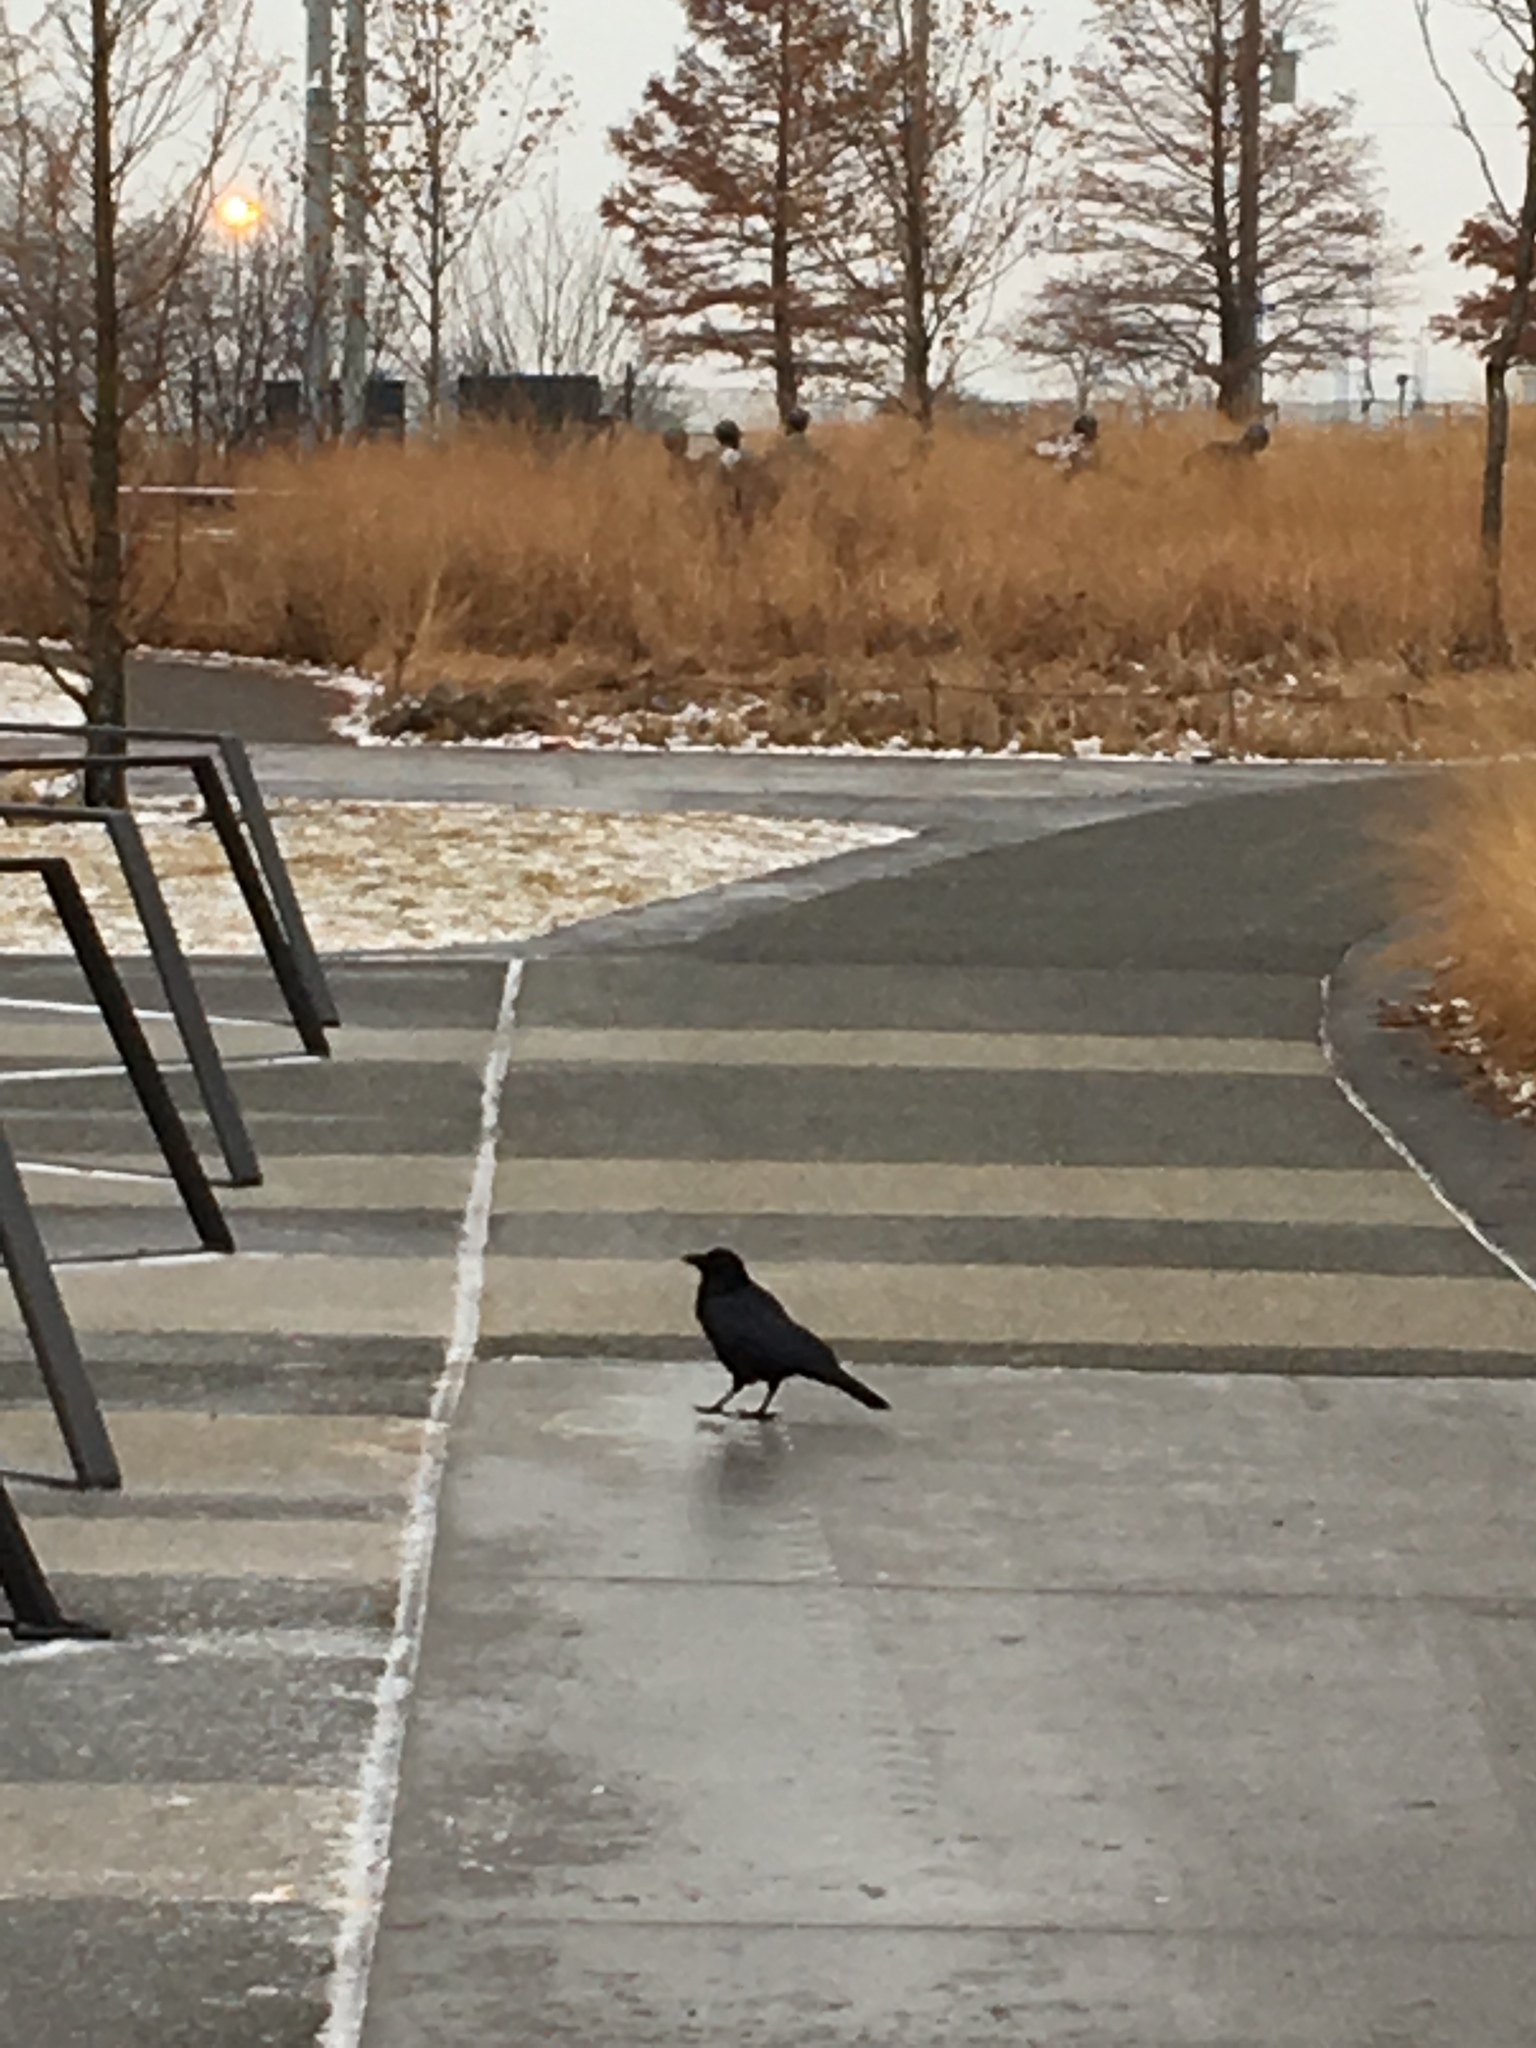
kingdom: Animalia
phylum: Chordata
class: Aves
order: Passeriformes
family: Corvidae
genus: Corvus
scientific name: Corvus brachyrhynchos
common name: American crow
